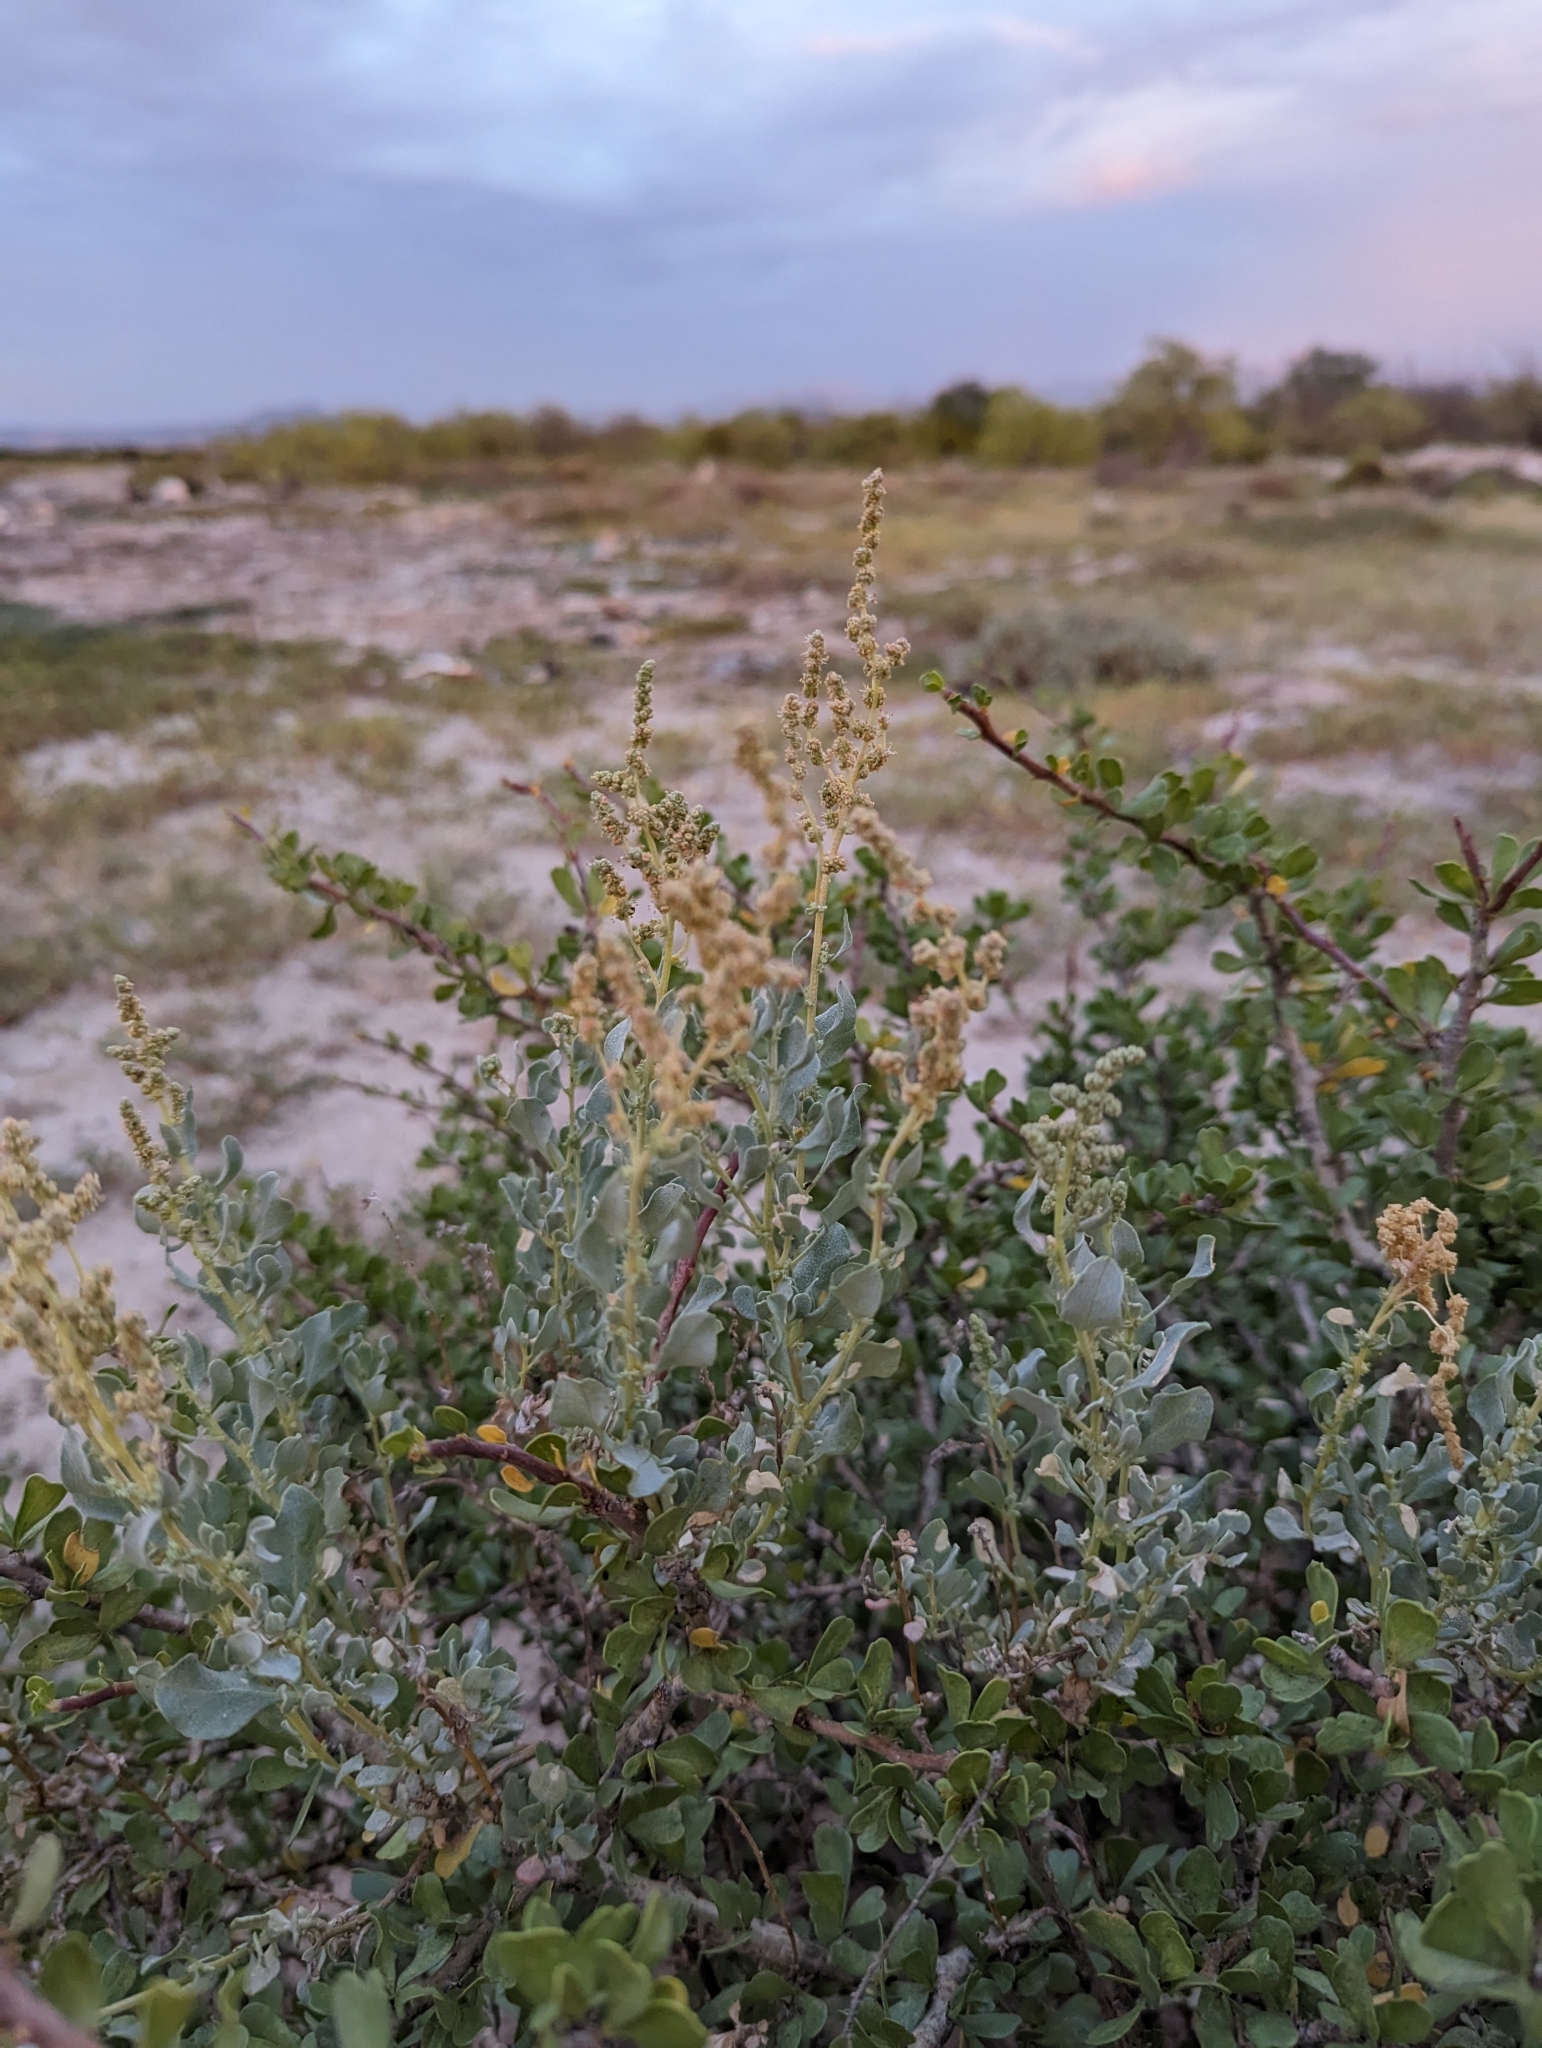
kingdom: Plantae
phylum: Tracheophyta
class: Magnoliopsida
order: Caryophyllales
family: Amaranthaceae
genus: Atriplex
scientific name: Atriplex barclayana
